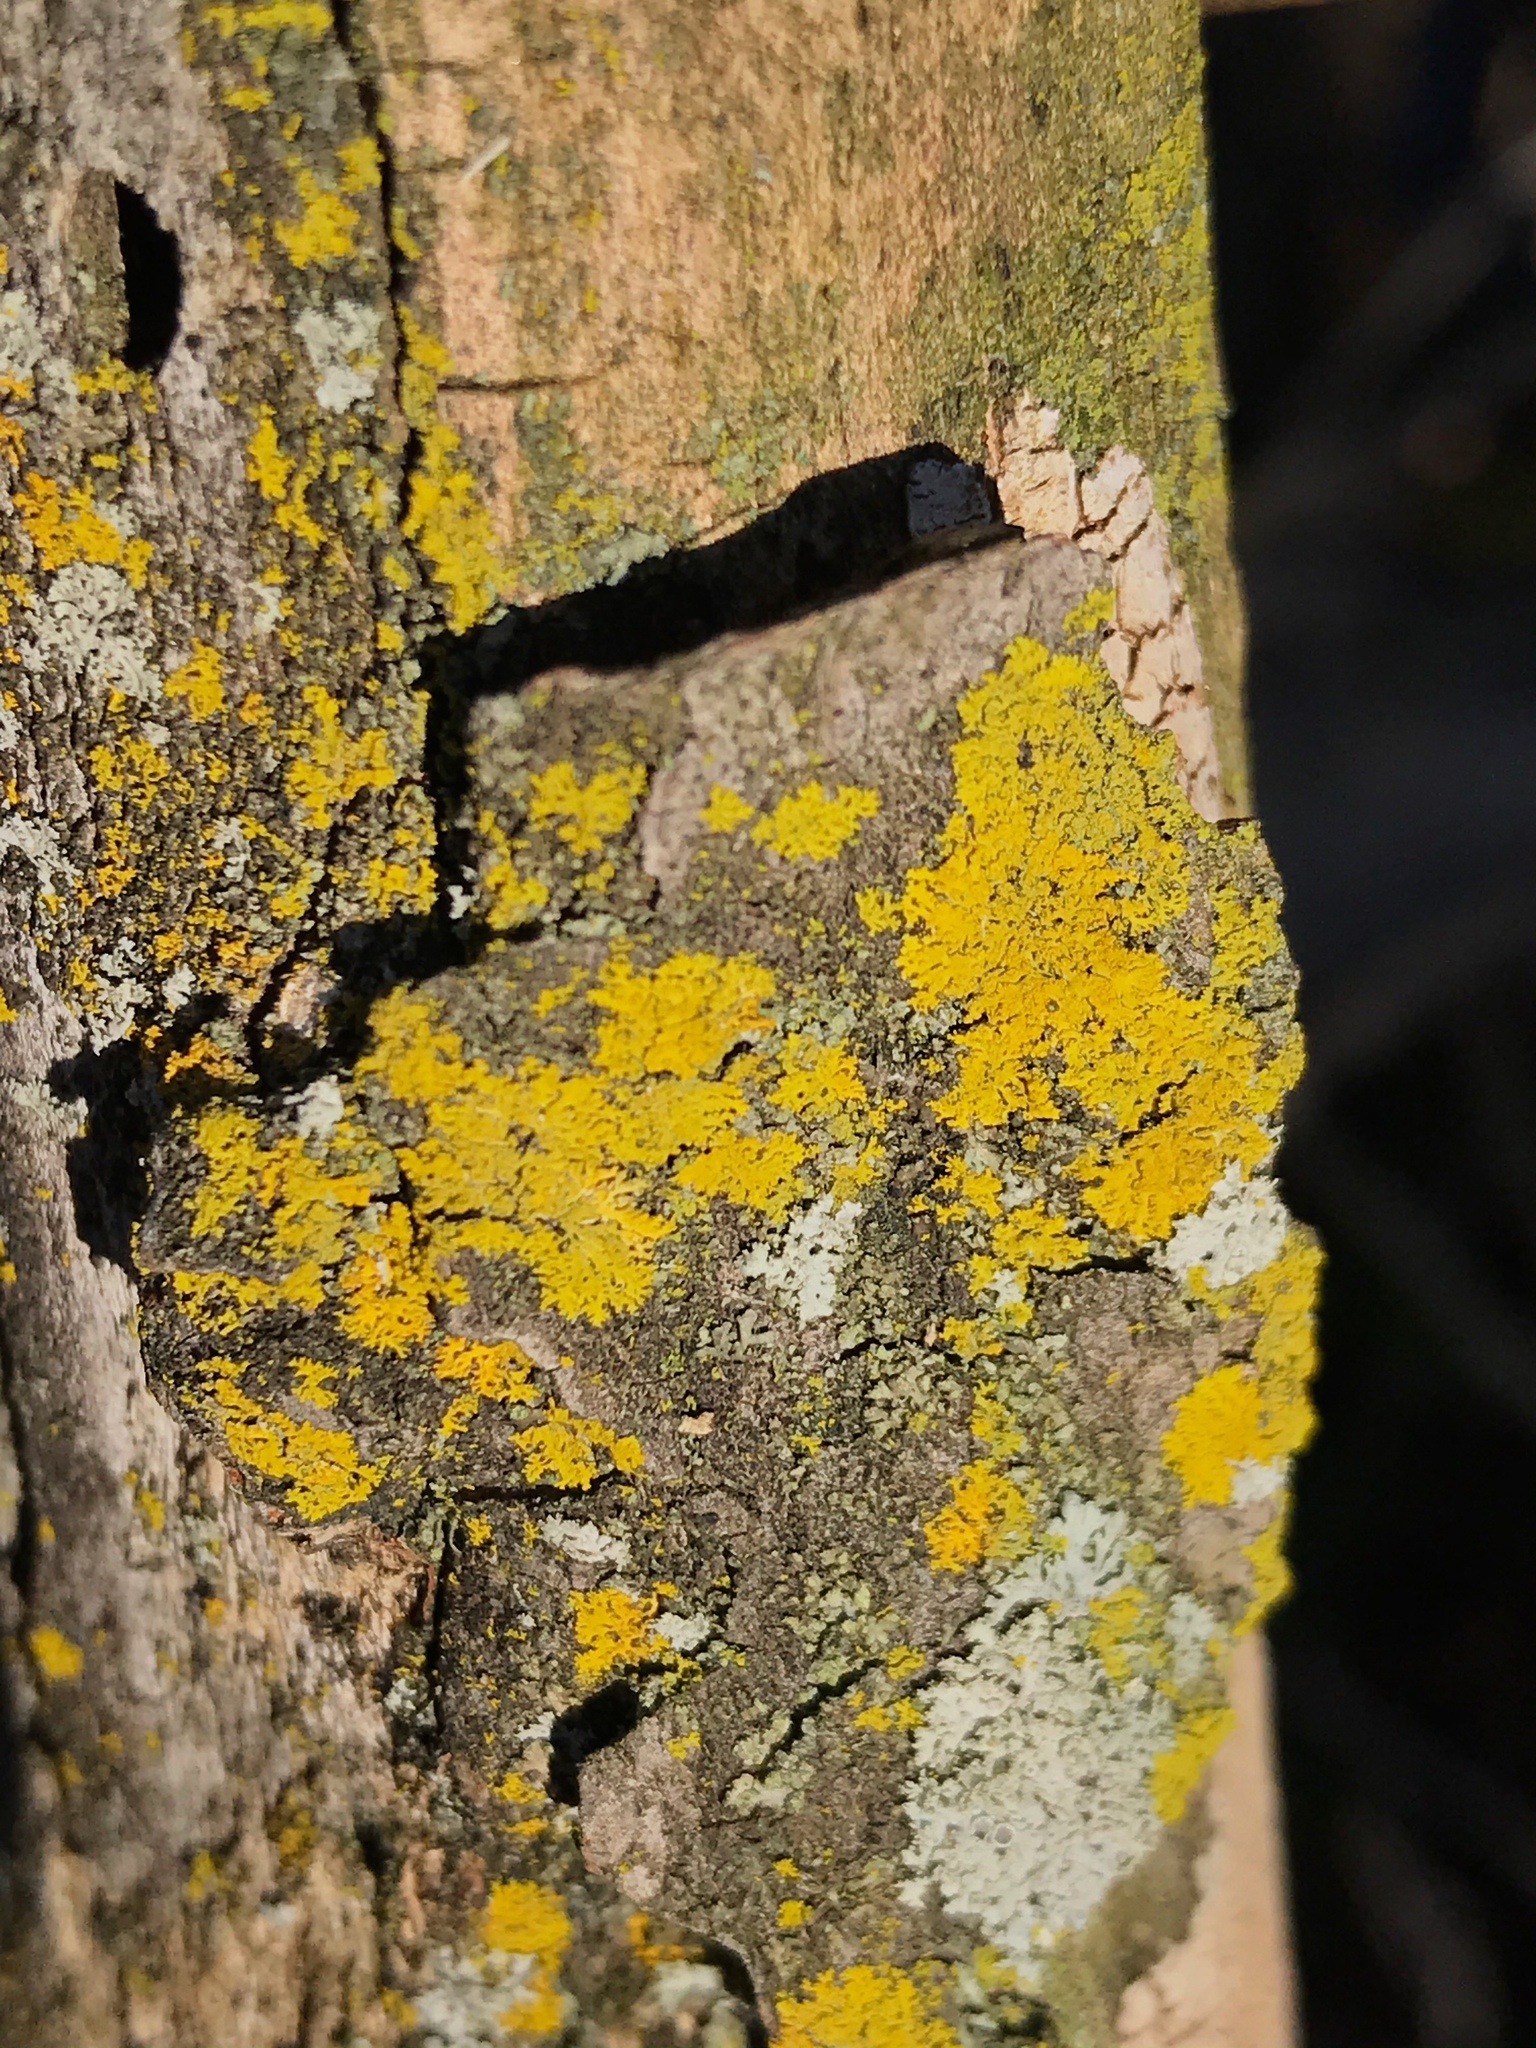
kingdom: Fungi
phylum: Ascomycota
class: Candelariomycetes
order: Candelariales
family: Candelariaceae
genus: Candelaria
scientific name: Candelaria concolor
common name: Candleflame lichen
